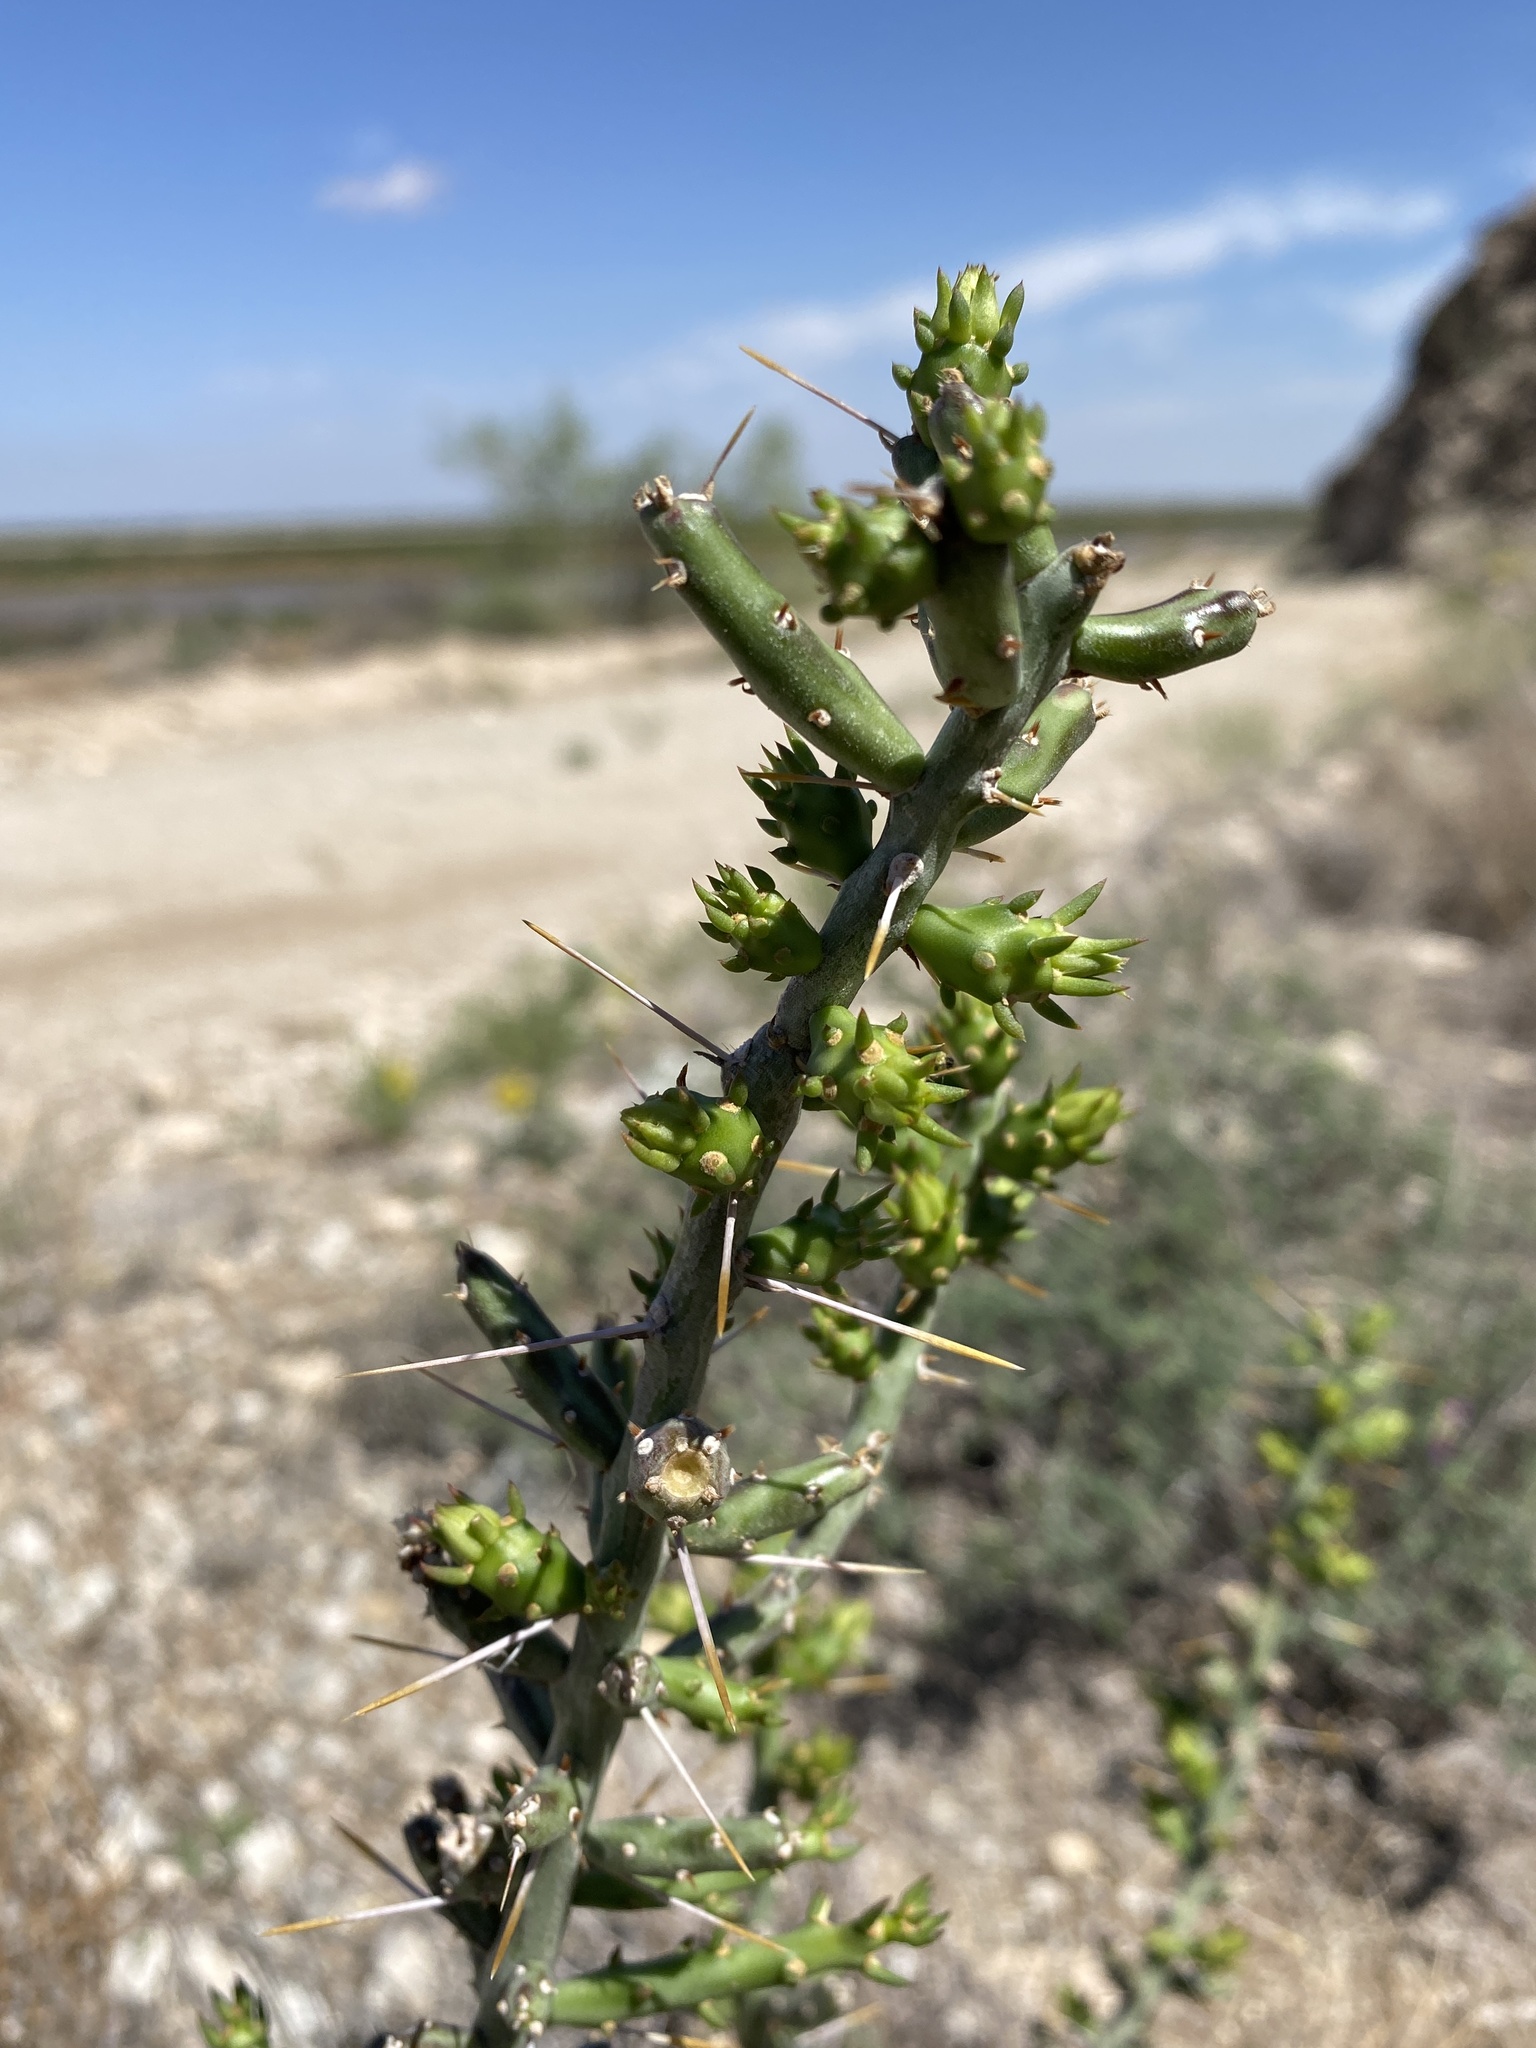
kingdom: Plantae
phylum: Tracheophyta
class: Magnoliopsida
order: Caryophyllales
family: Cactaceae
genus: Cylindropuntia
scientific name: Cylindropuntia leptocaulis
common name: Christmas cactus
